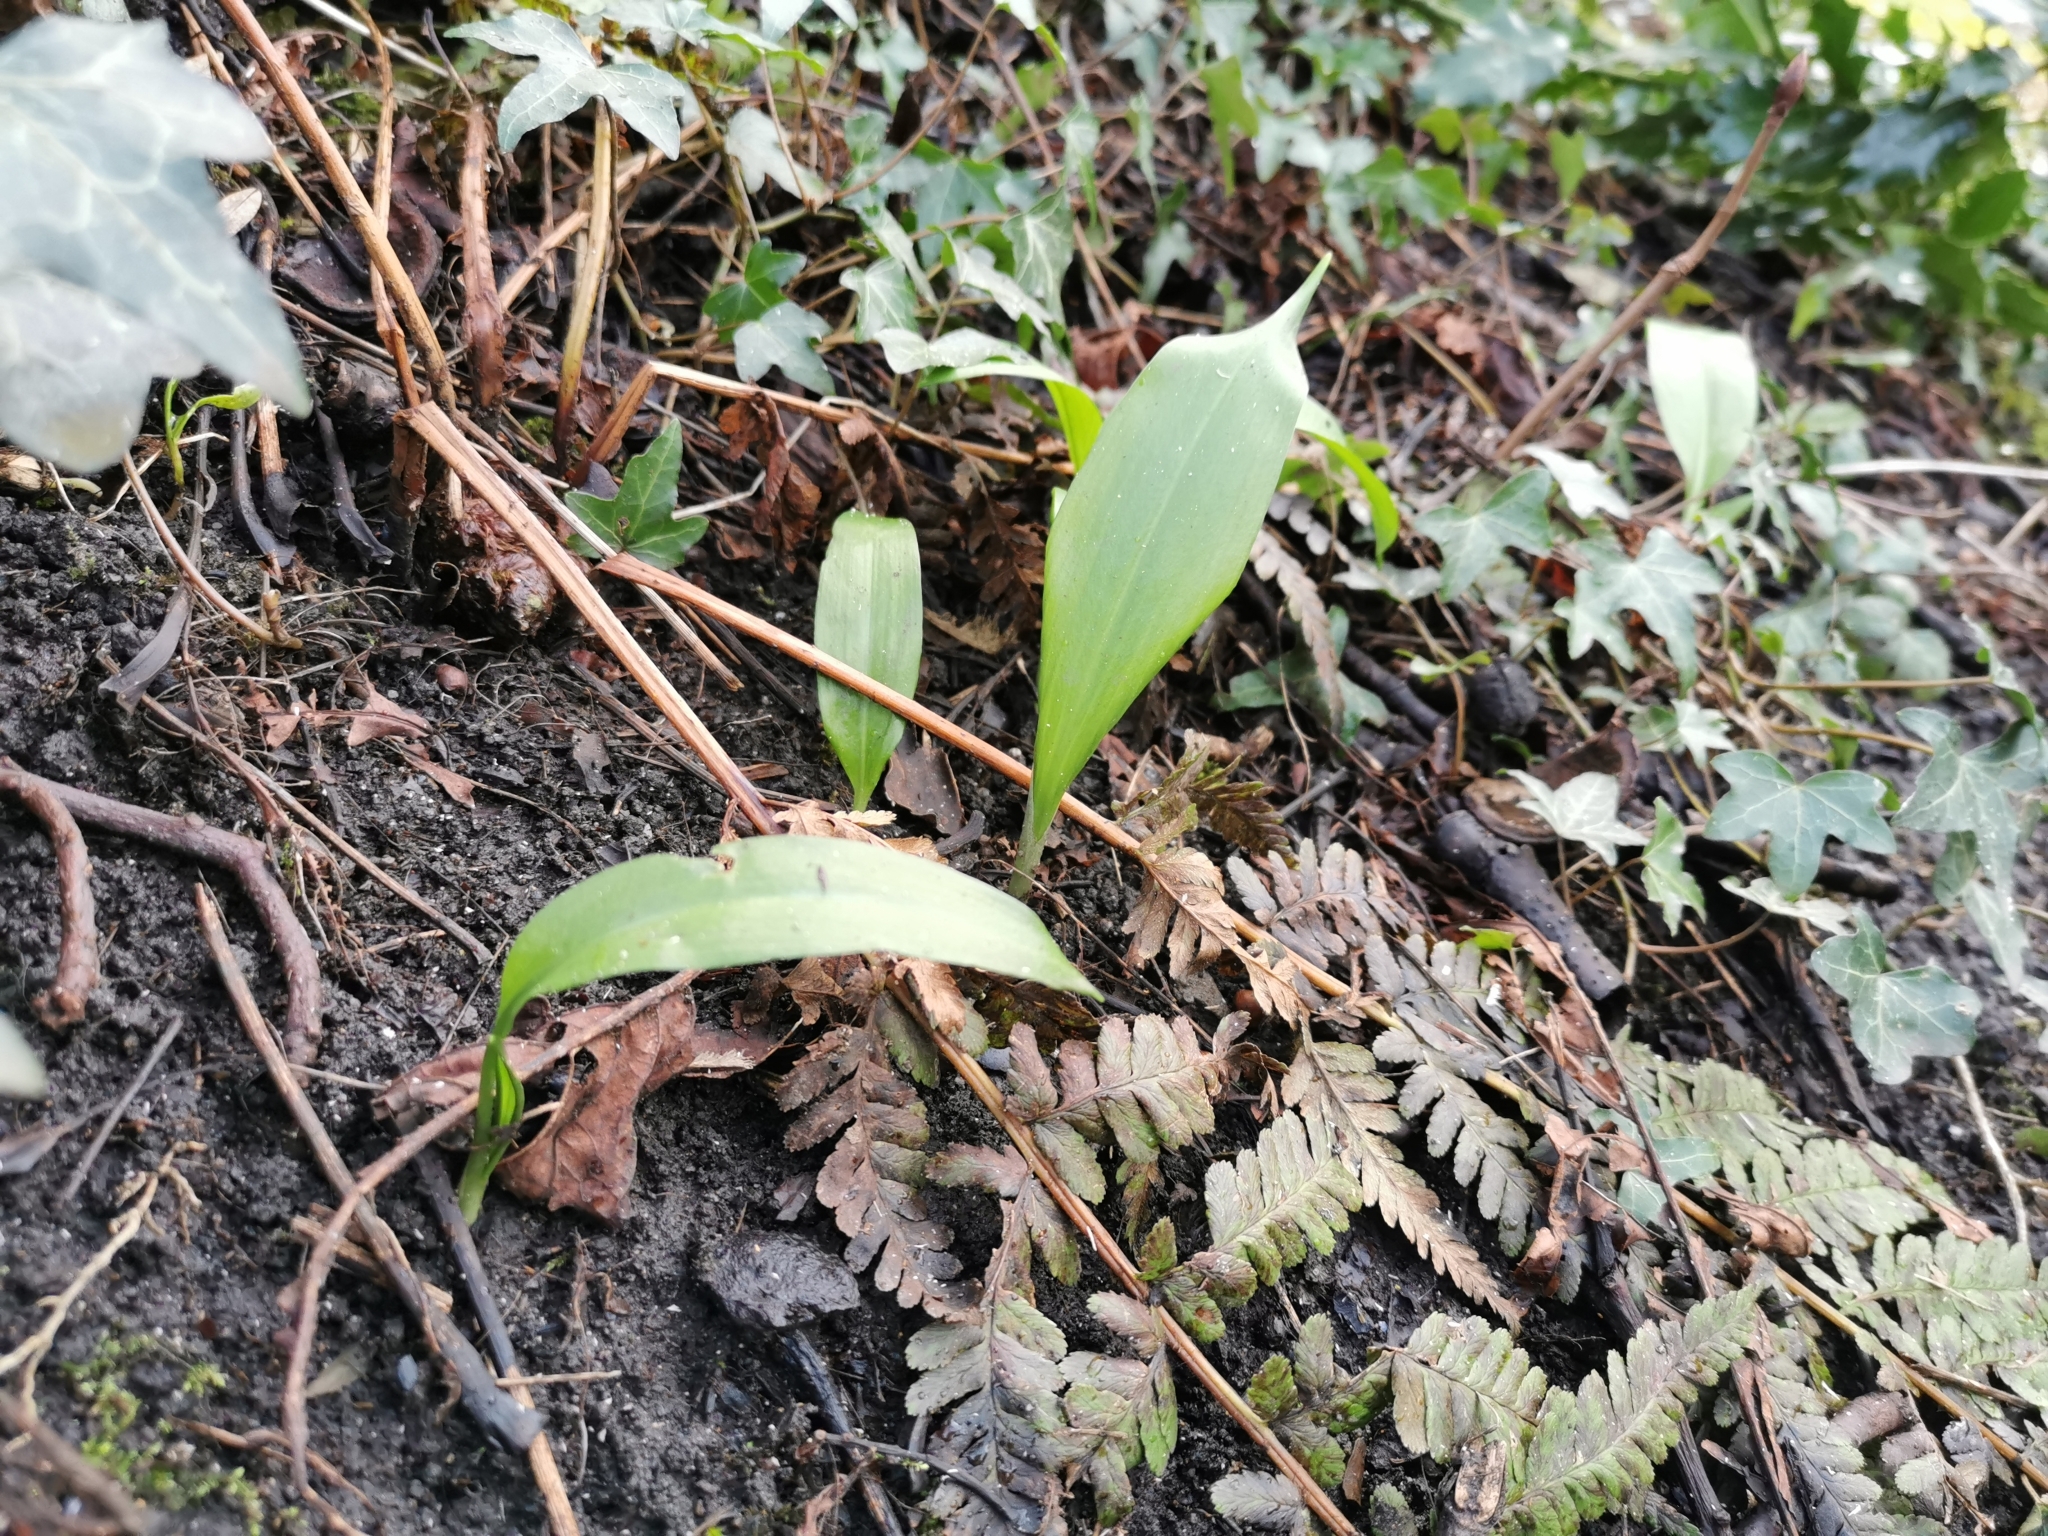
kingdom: Plantae
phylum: Tracheophyta
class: Liliopsida
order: Asparagales
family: Amaryllidaceae
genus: Allium
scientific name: Allium ursinum
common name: Ramsons
